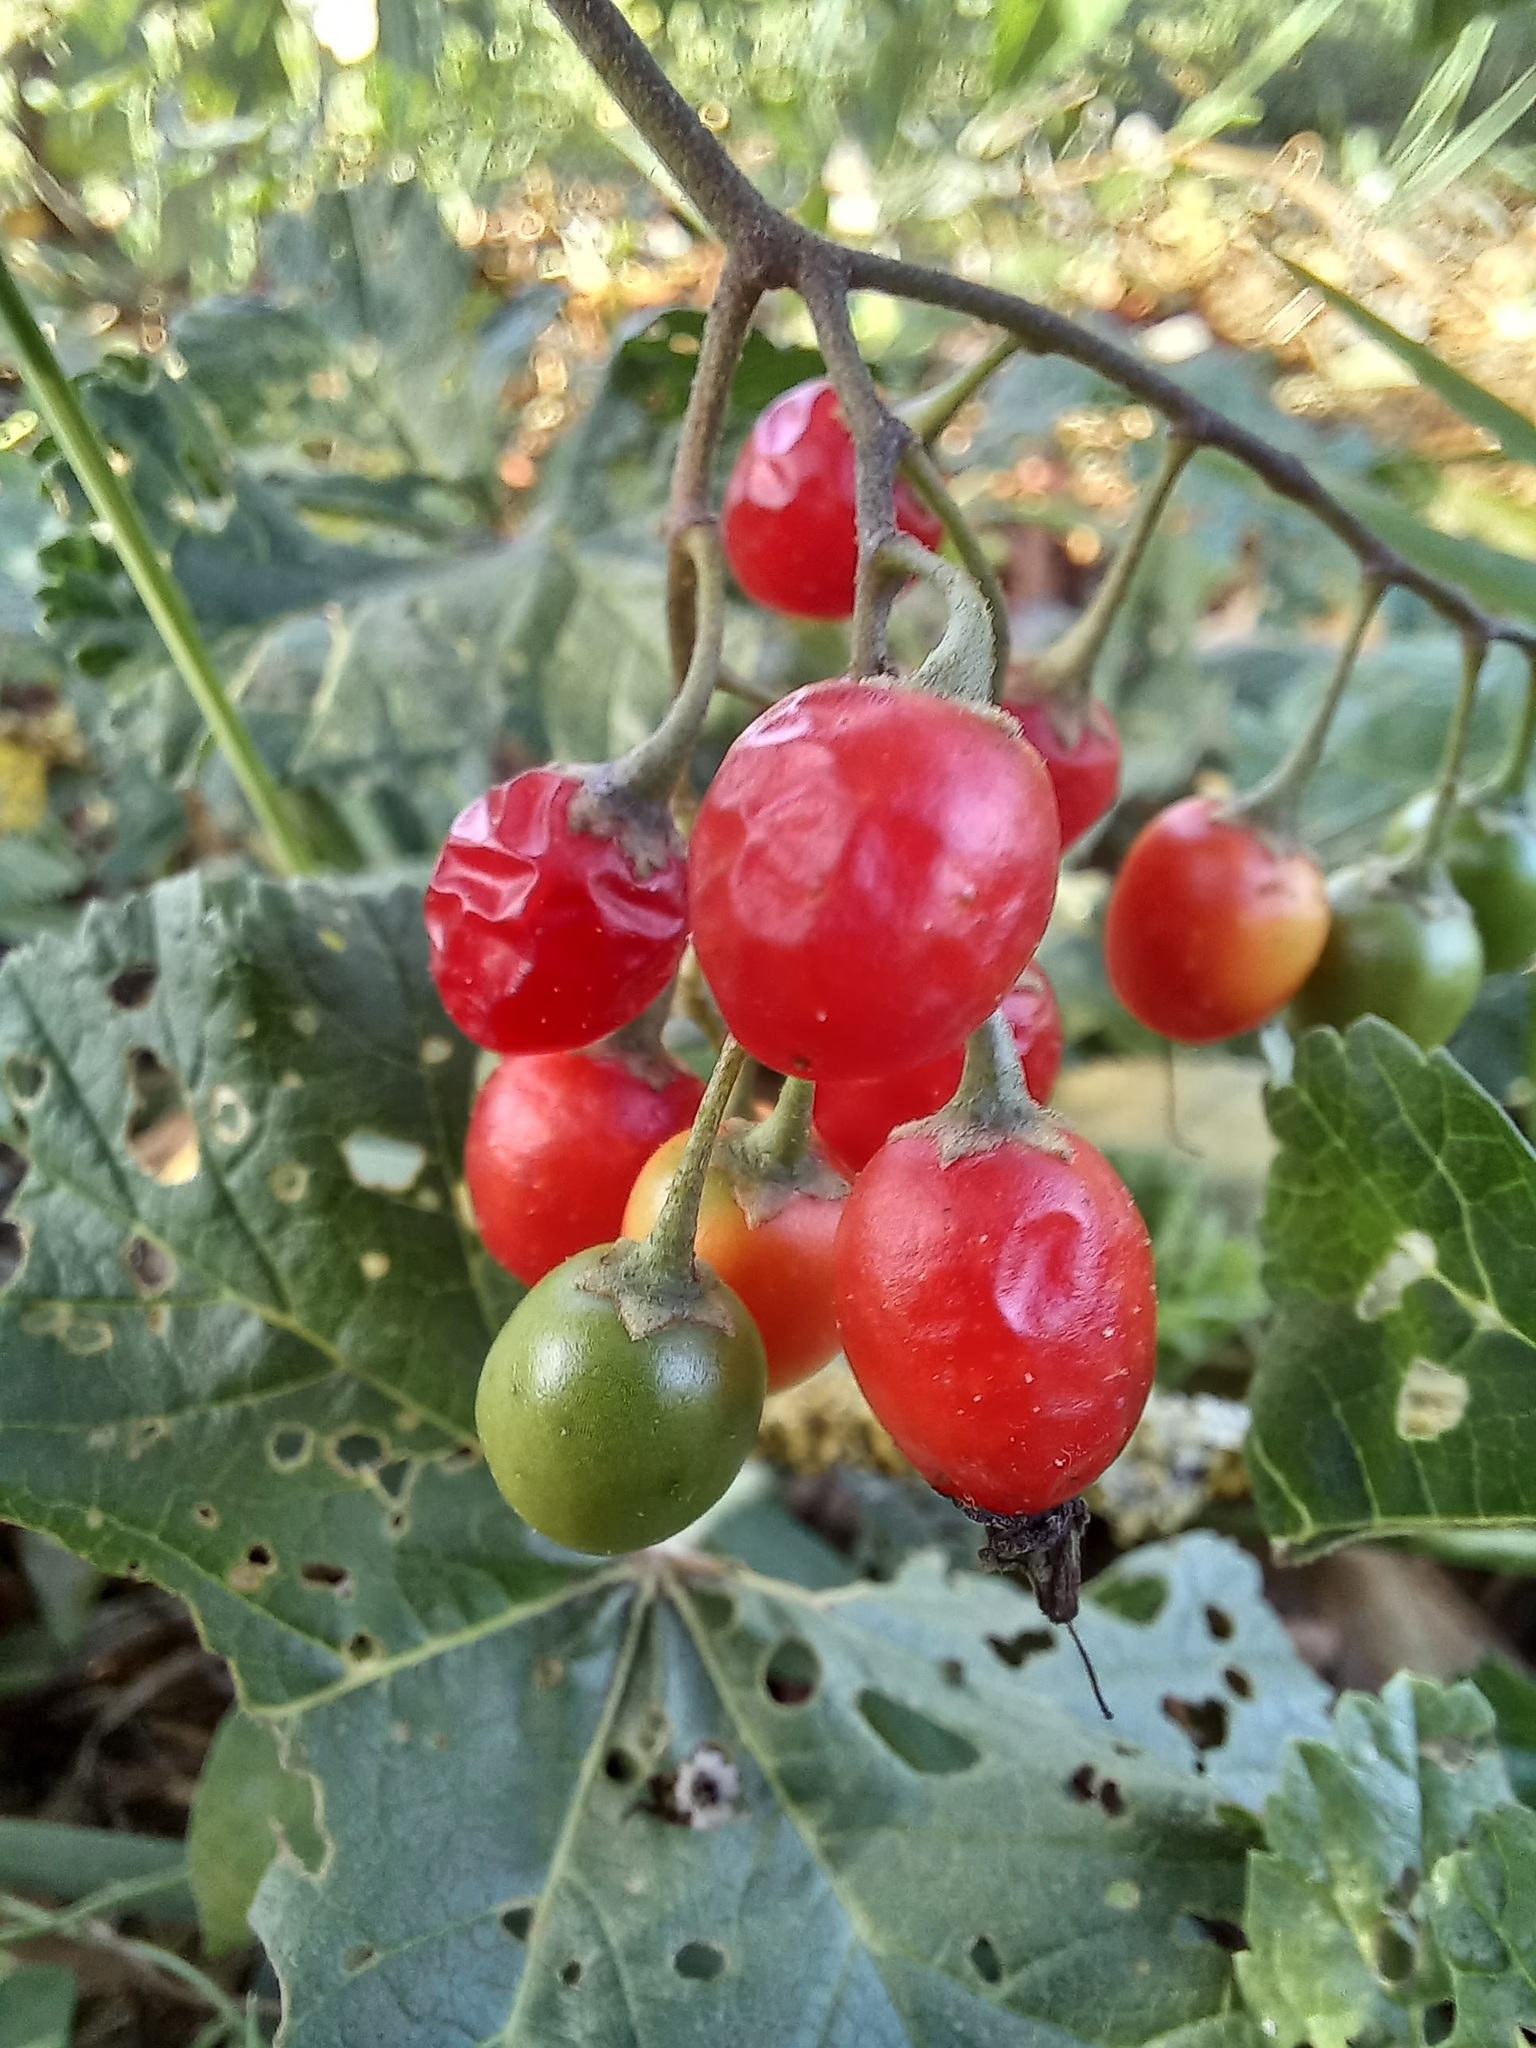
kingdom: Plantae
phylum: Tracheophyta
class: Magnoliopsida
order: Solanales
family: Solanaceae
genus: Solanum
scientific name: Solanum dulcamara
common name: Climbing nightshade
